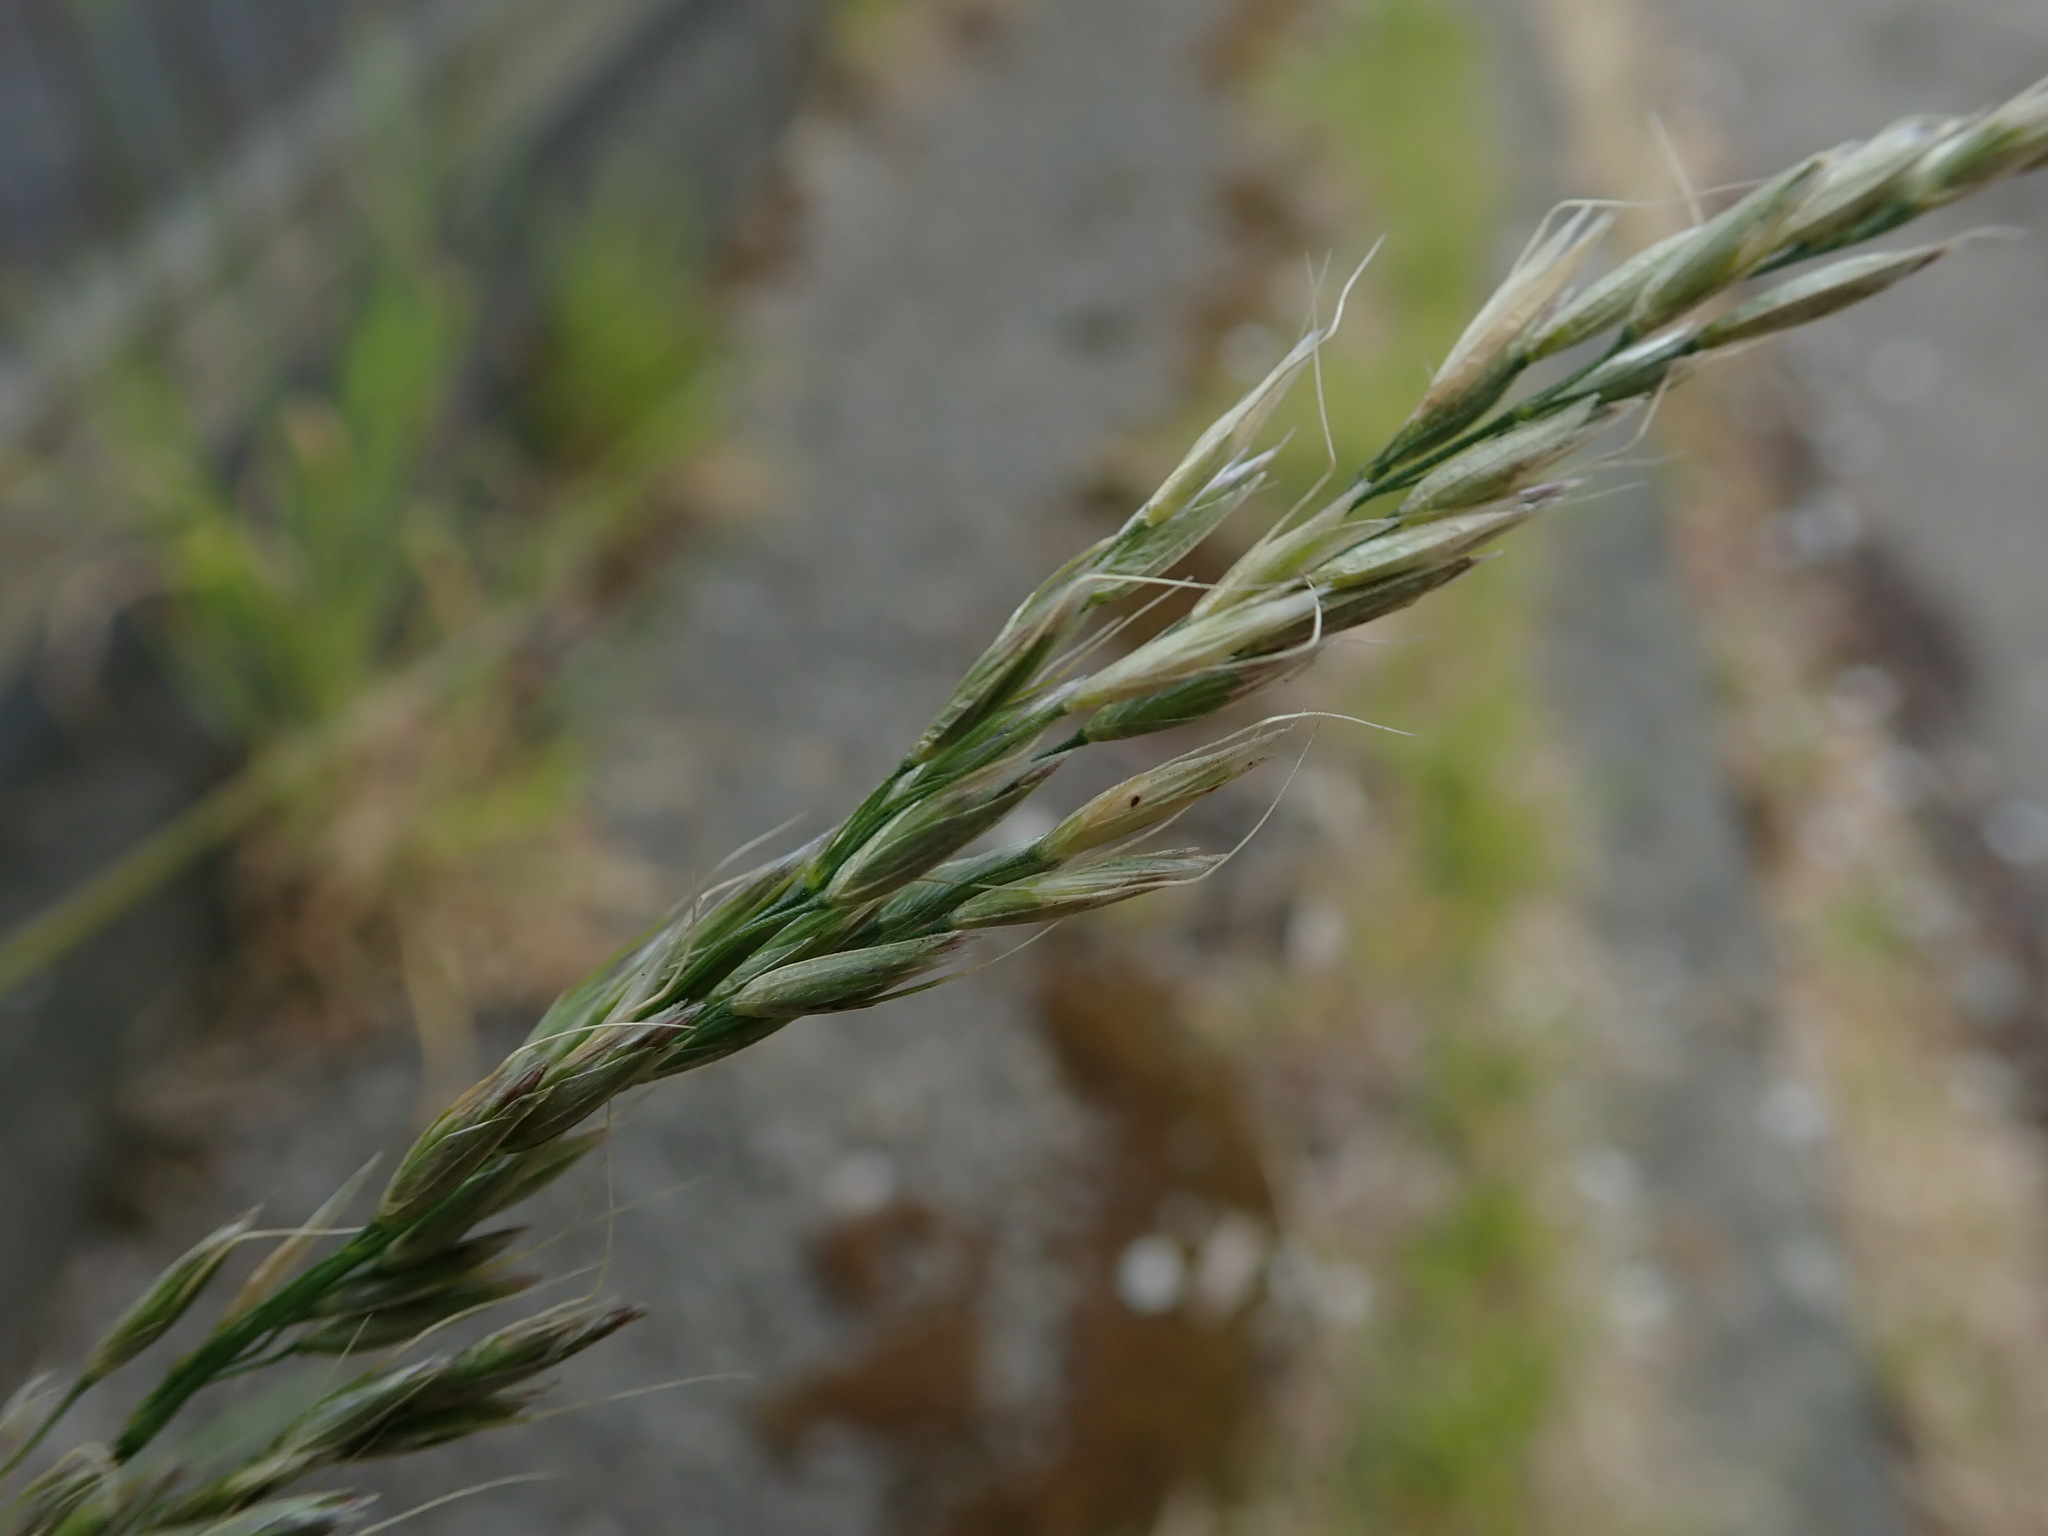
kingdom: Plantae
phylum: Tracheophyta
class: Liliopsida
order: Poales
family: Poaceae
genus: Arrhenatherum
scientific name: Arrhenatherum elatius
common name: Tall oatgrass
